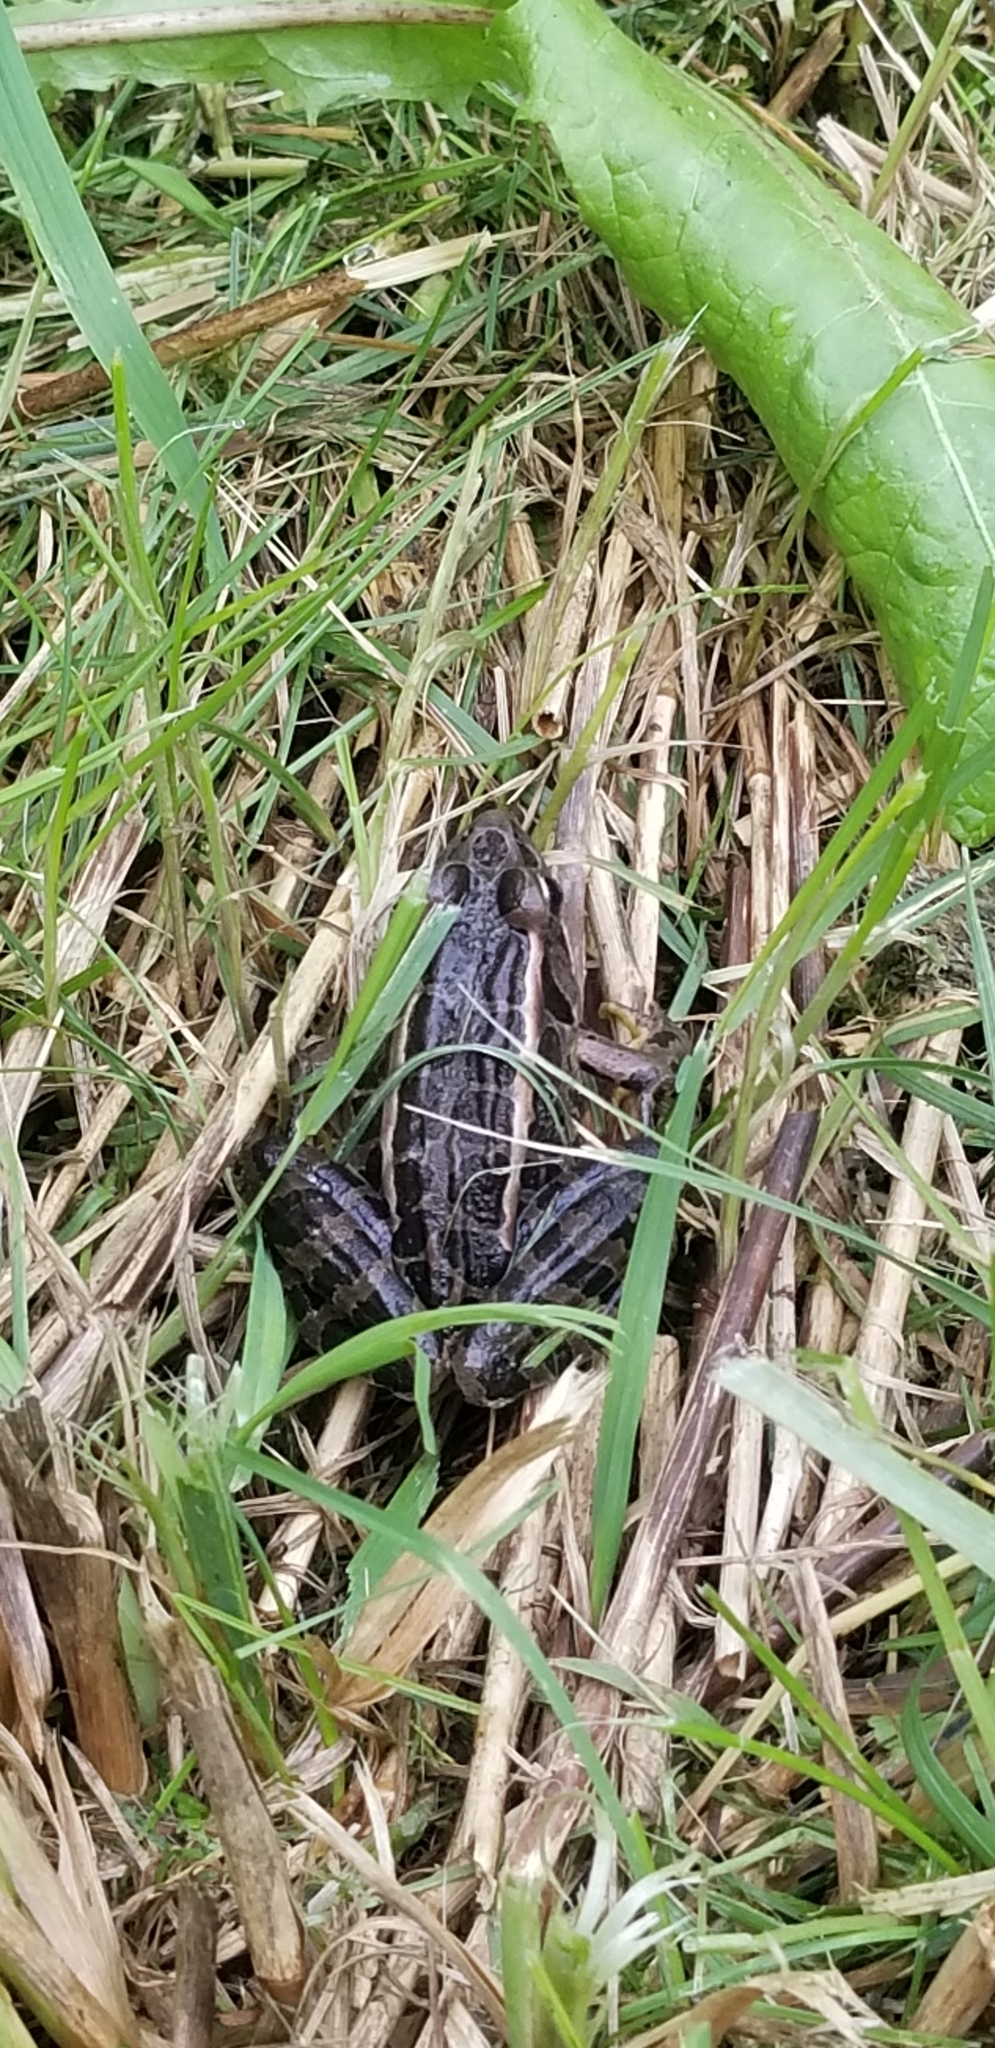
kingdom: Animalia
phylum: Chordata
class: Amphibia
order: Anura
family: Ranidae
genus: Lithobates
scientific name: Lithobates palustris
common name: Pickerel frog
